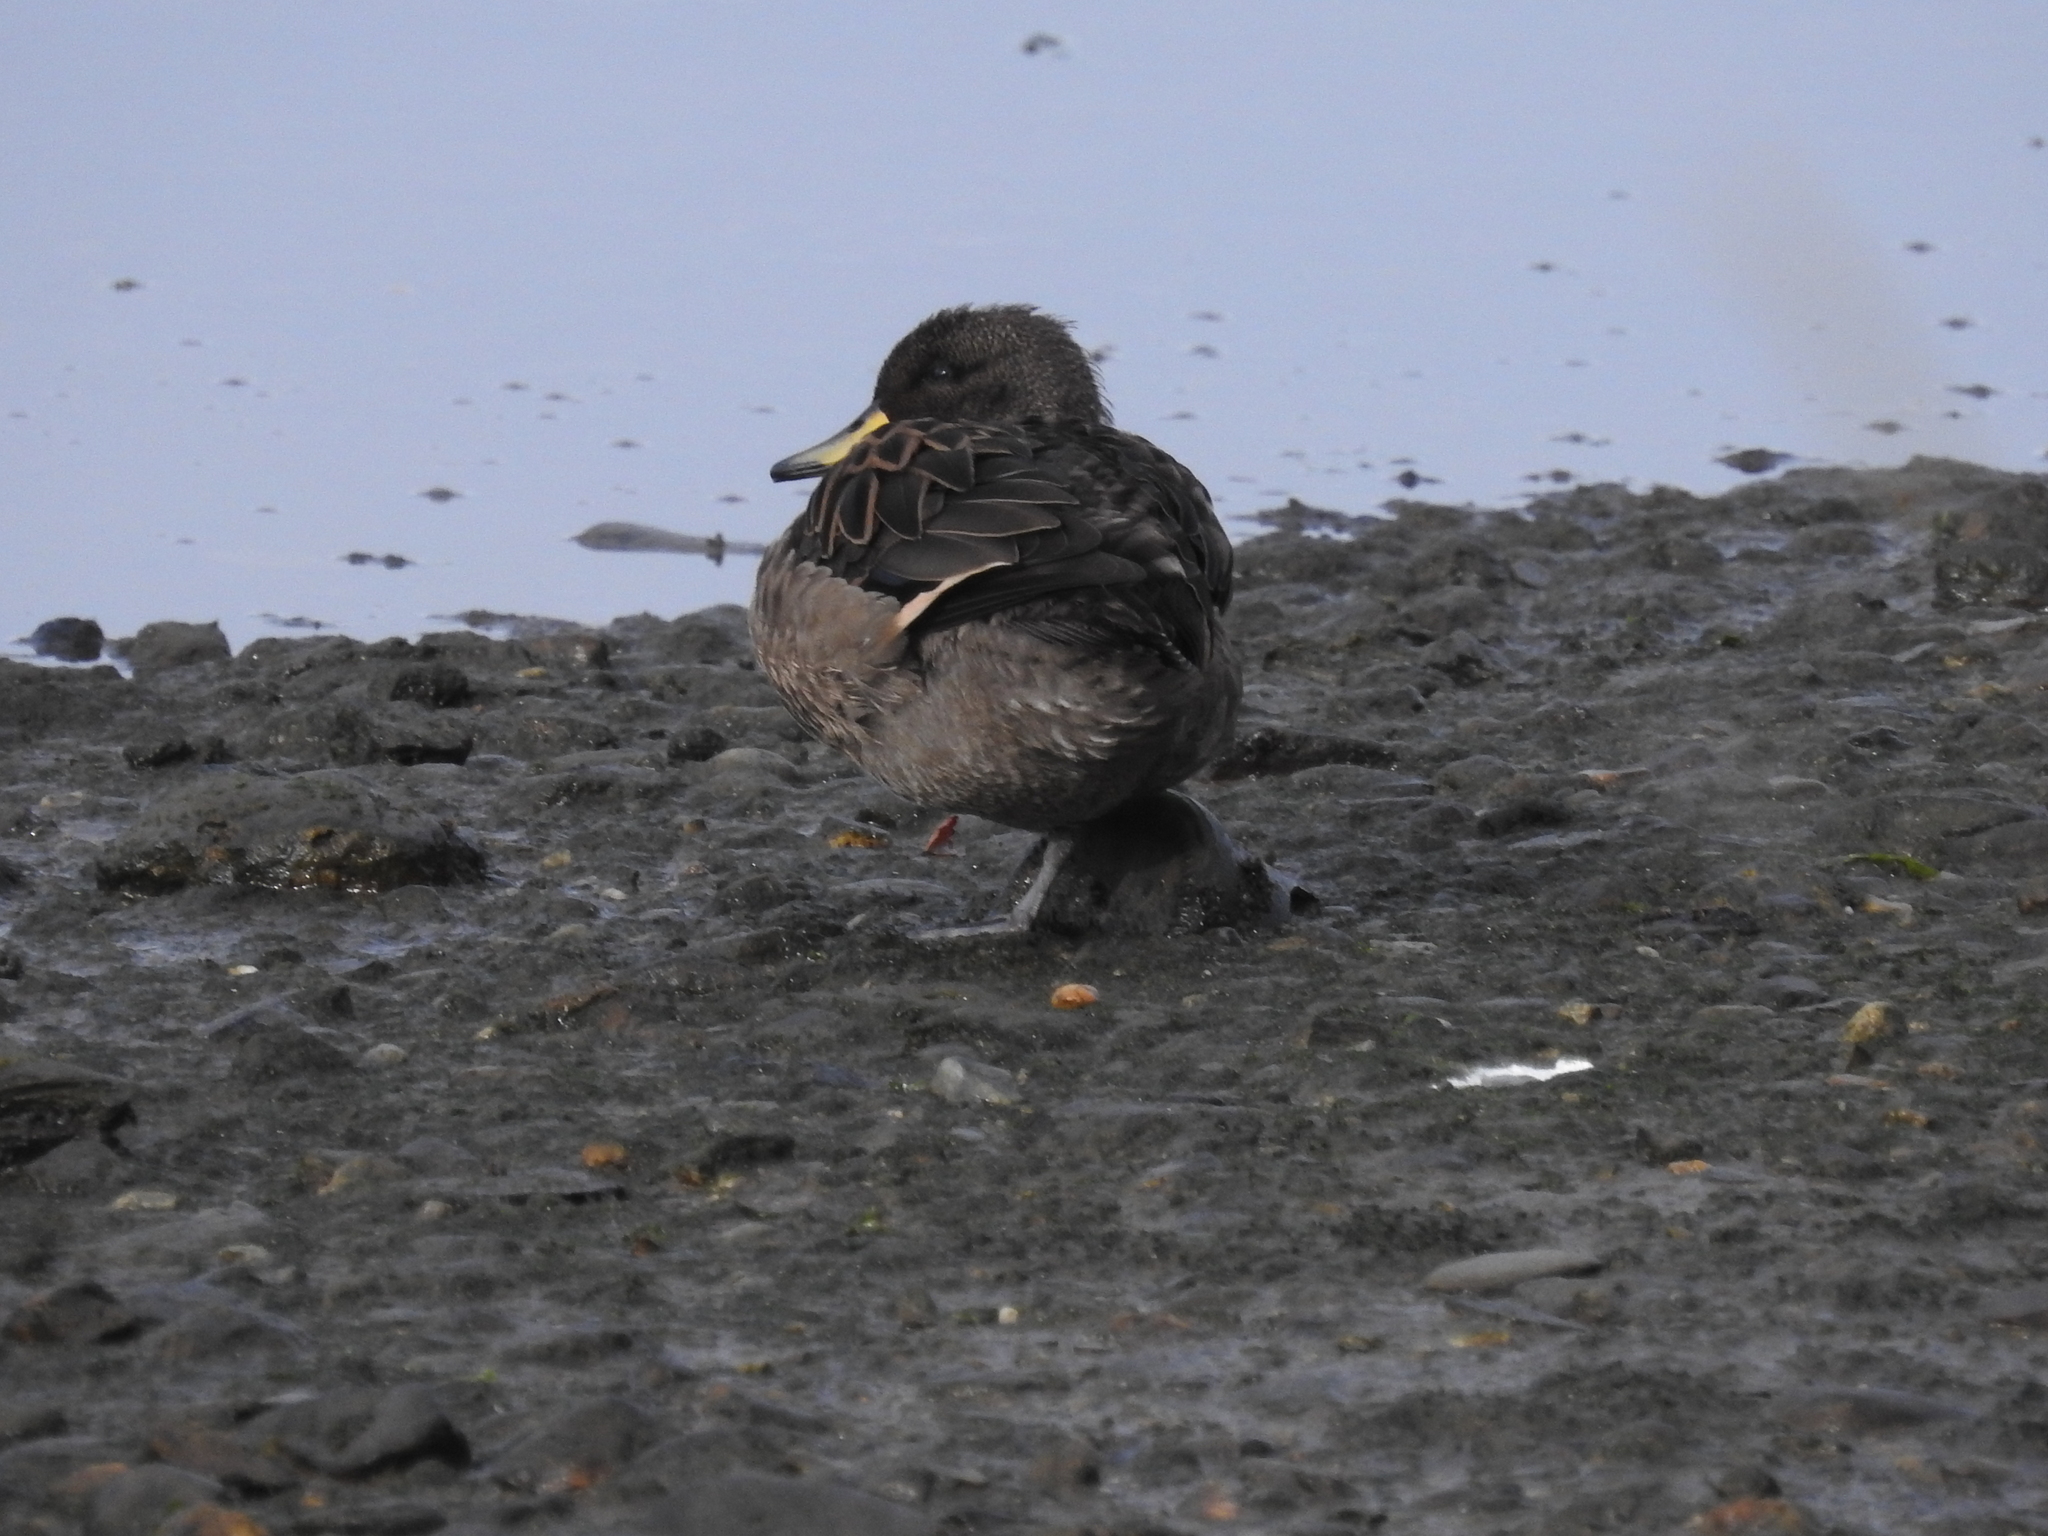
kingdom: Animalia
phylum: Chordata
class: Aves
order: Anseriformes
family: Anatidae
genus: Anas
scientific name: Anas flavirostris
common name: Yellow-billed teal
